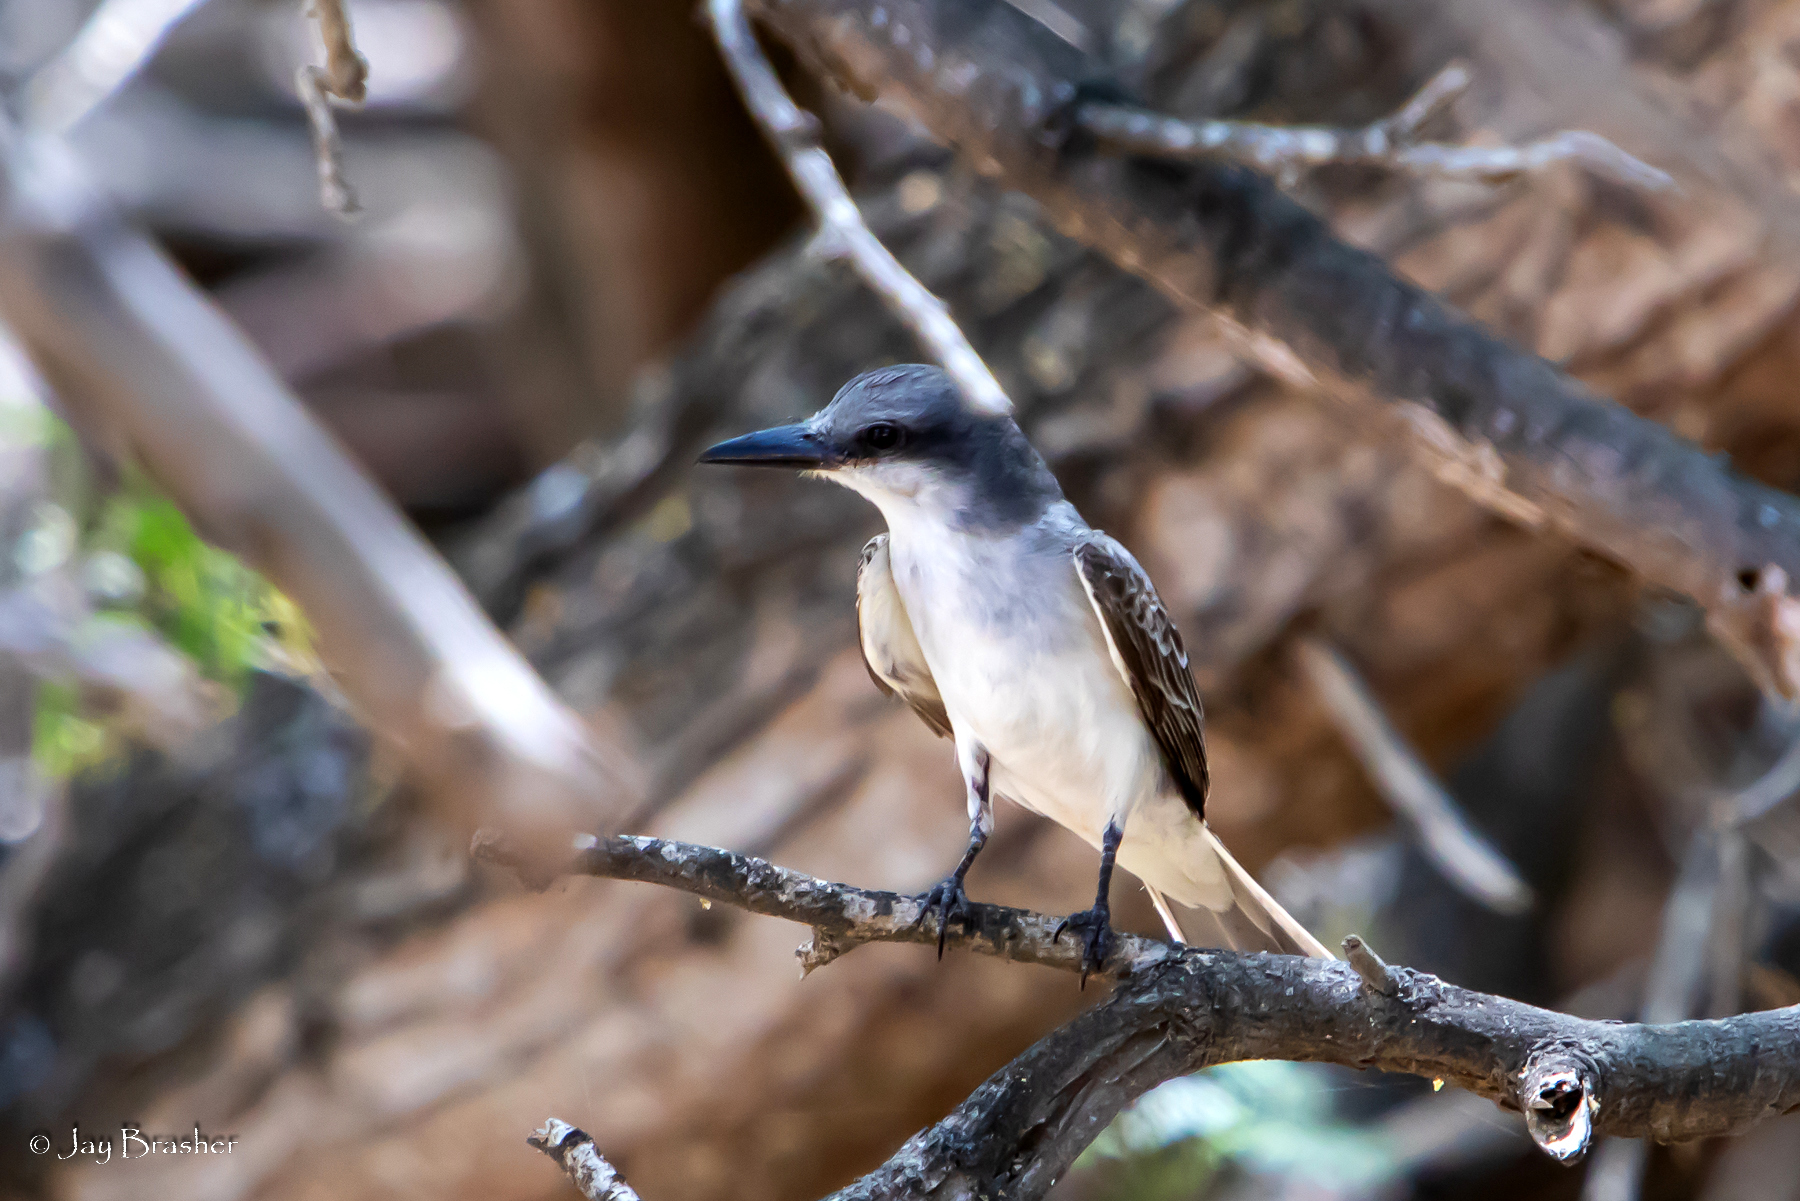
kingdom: Animalia
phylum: Chordata
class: Aves
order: Passeriformes
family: Tyrannidae
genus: Tyrannus
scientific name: Tyrannus dominicensis
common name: Gray kingbird
